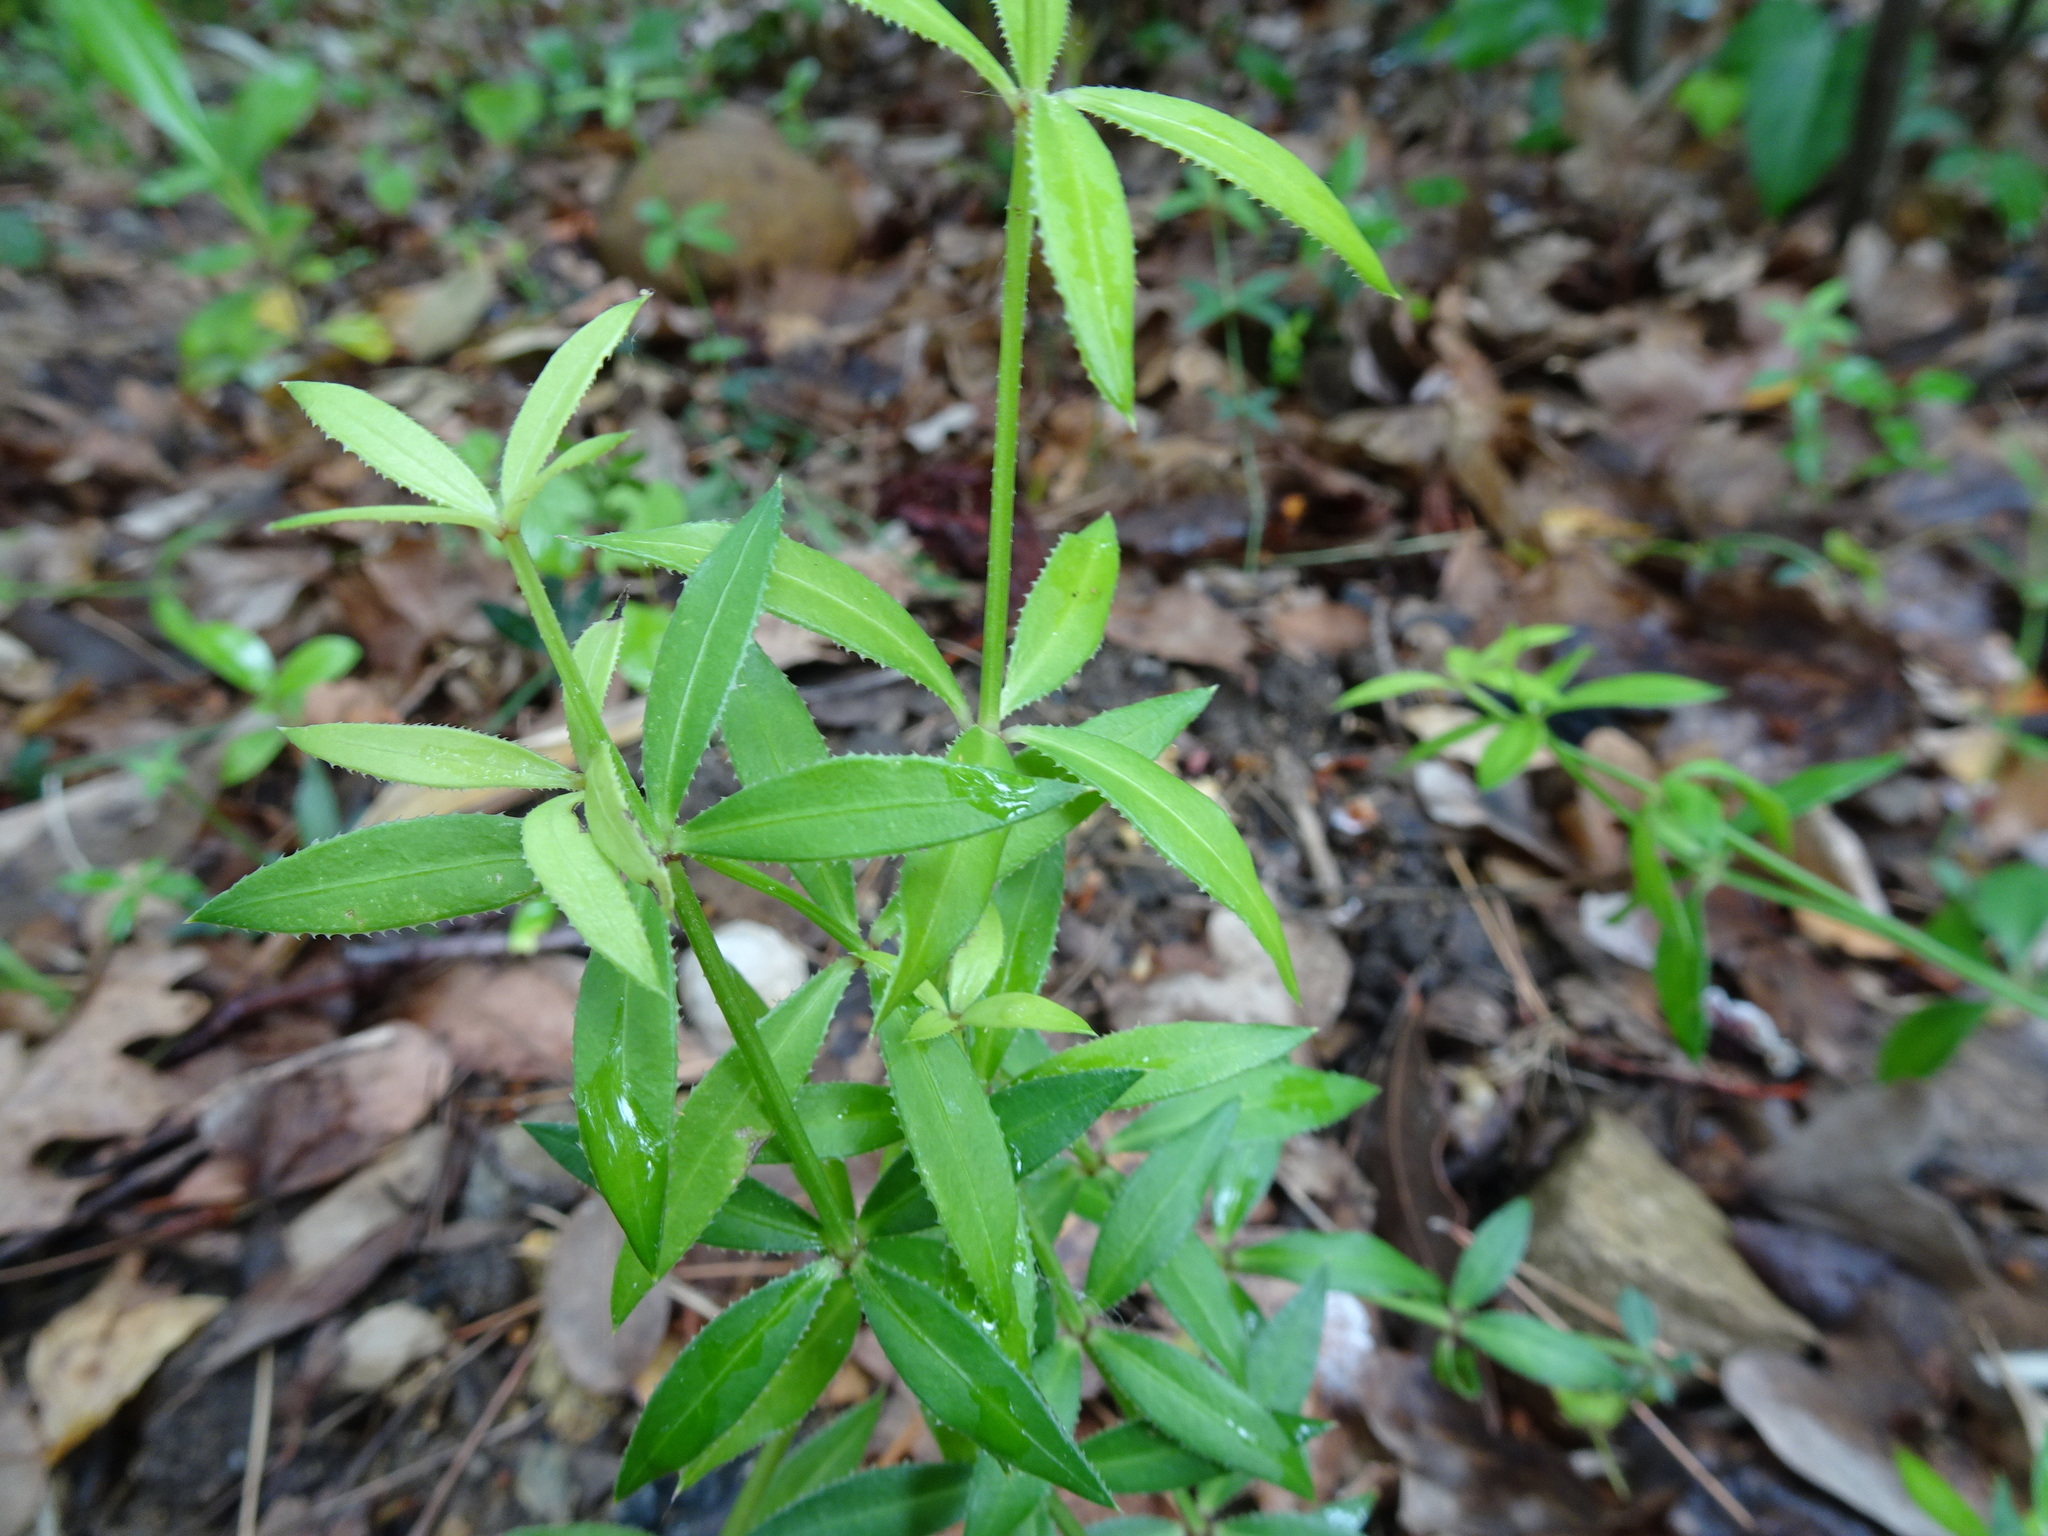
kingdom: Plantae
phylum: Tracheophyta
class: Magnoliopsida
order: Gentianales
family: Rubiaceae
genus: Rubia
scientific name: Rubia peregrina
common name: Wild madder
